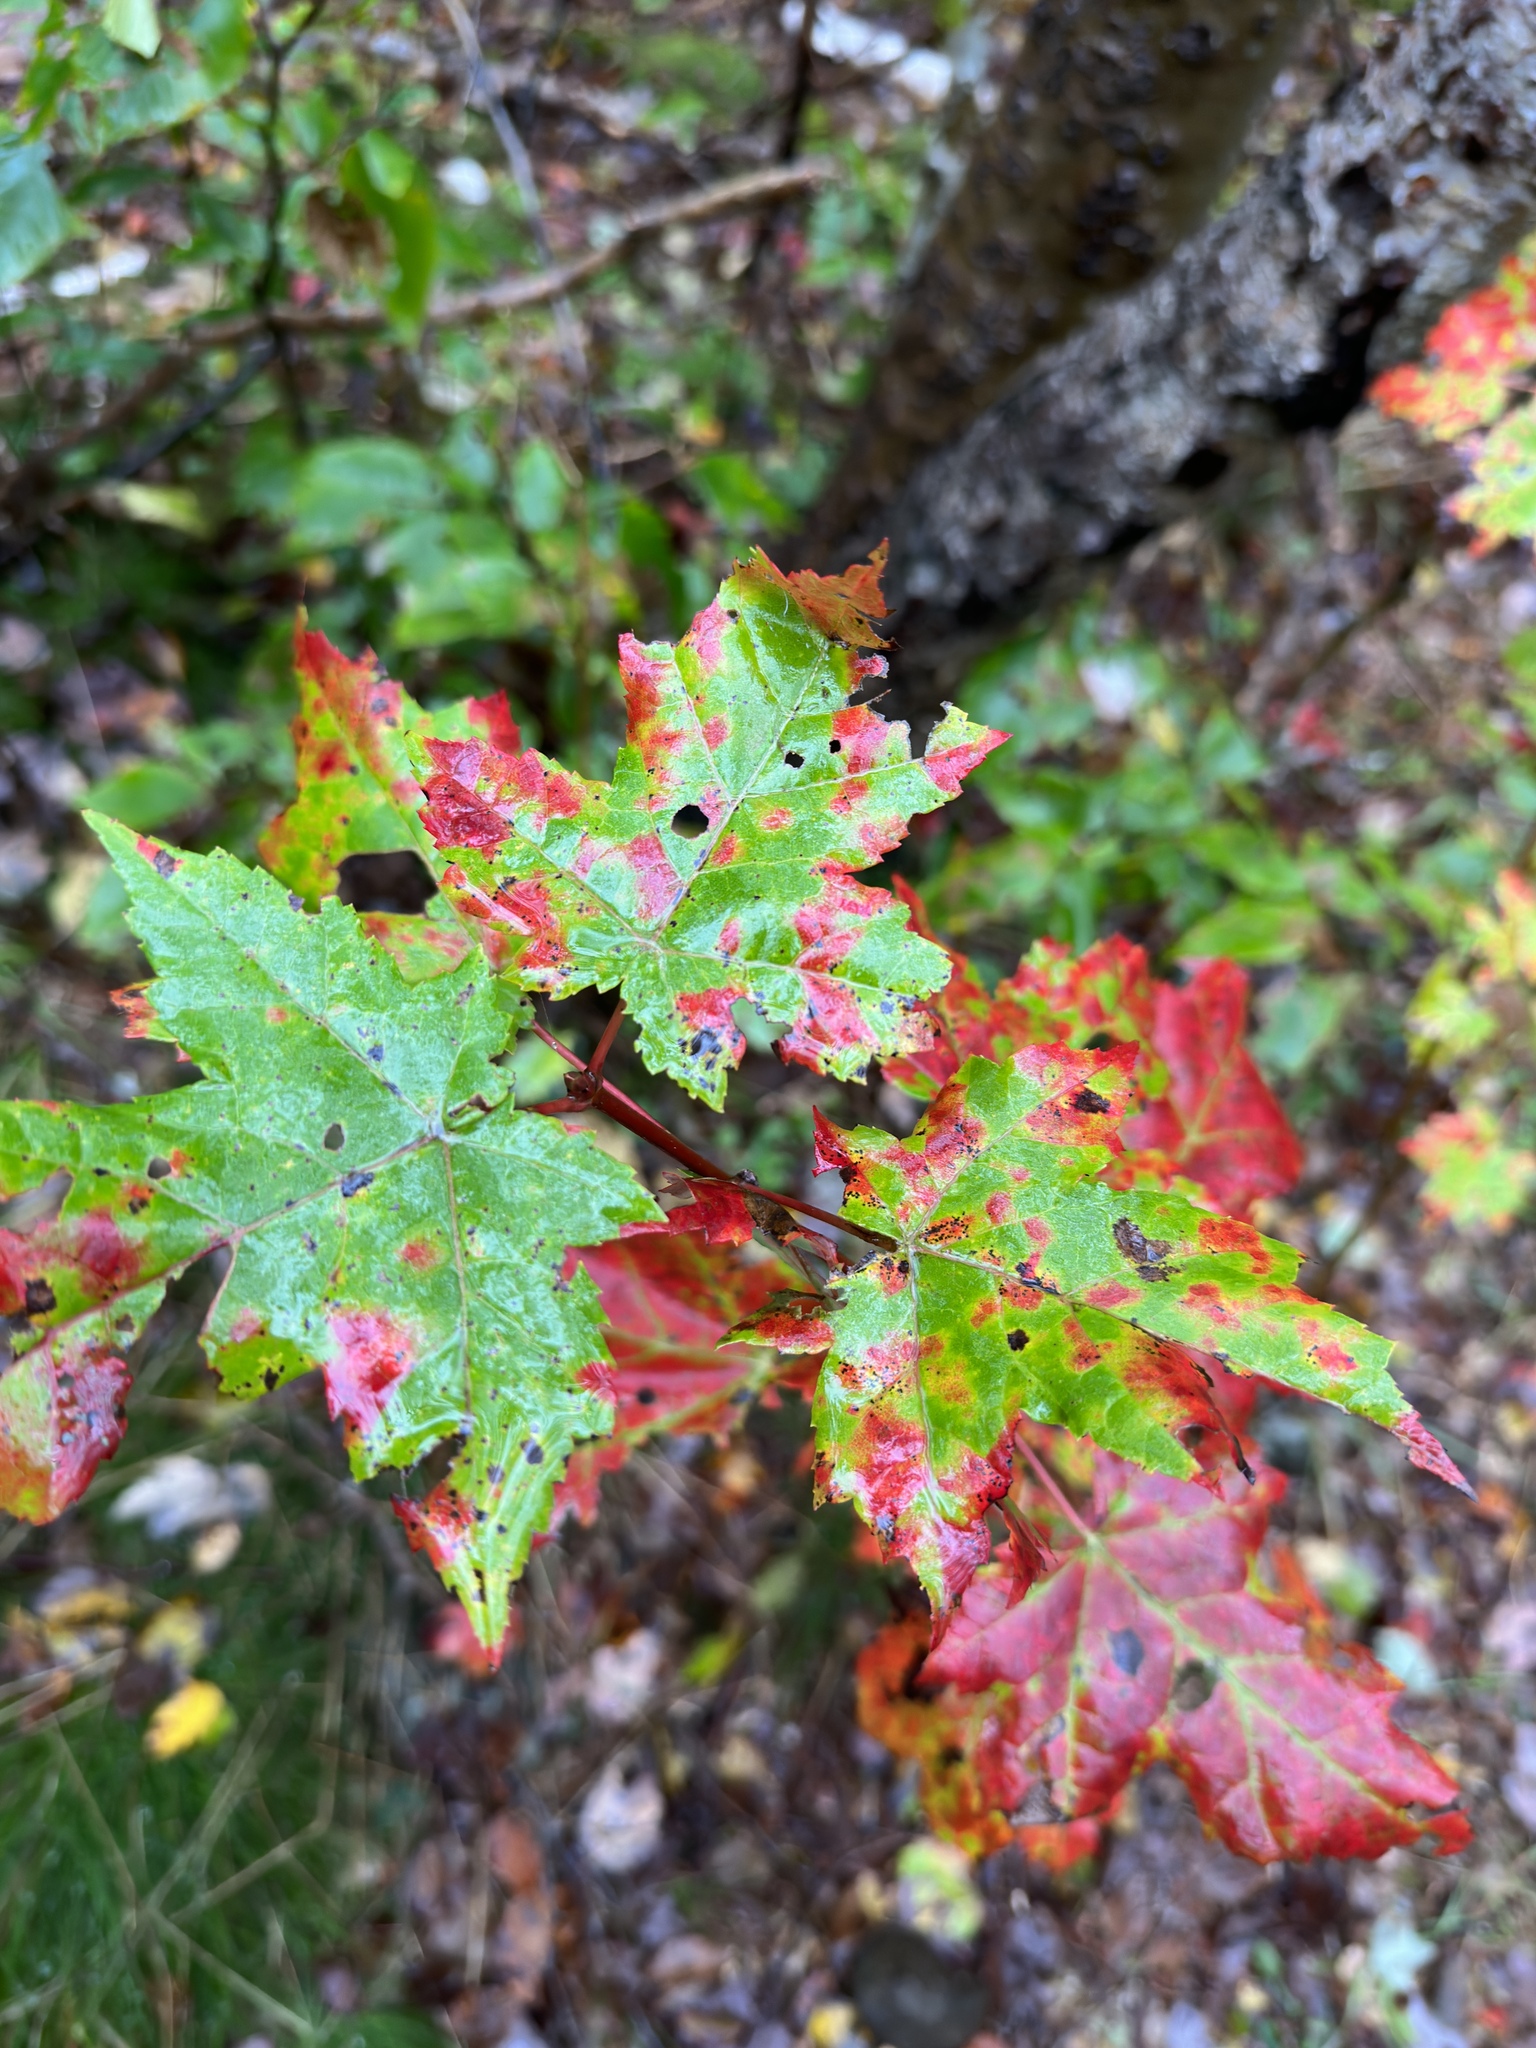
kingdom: Plantae
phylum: Tracheophyta
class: Magnoliopsida
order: Sapindales
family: Sapindaceae
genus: Acer
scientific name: Acer rubrum
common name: Red maple
